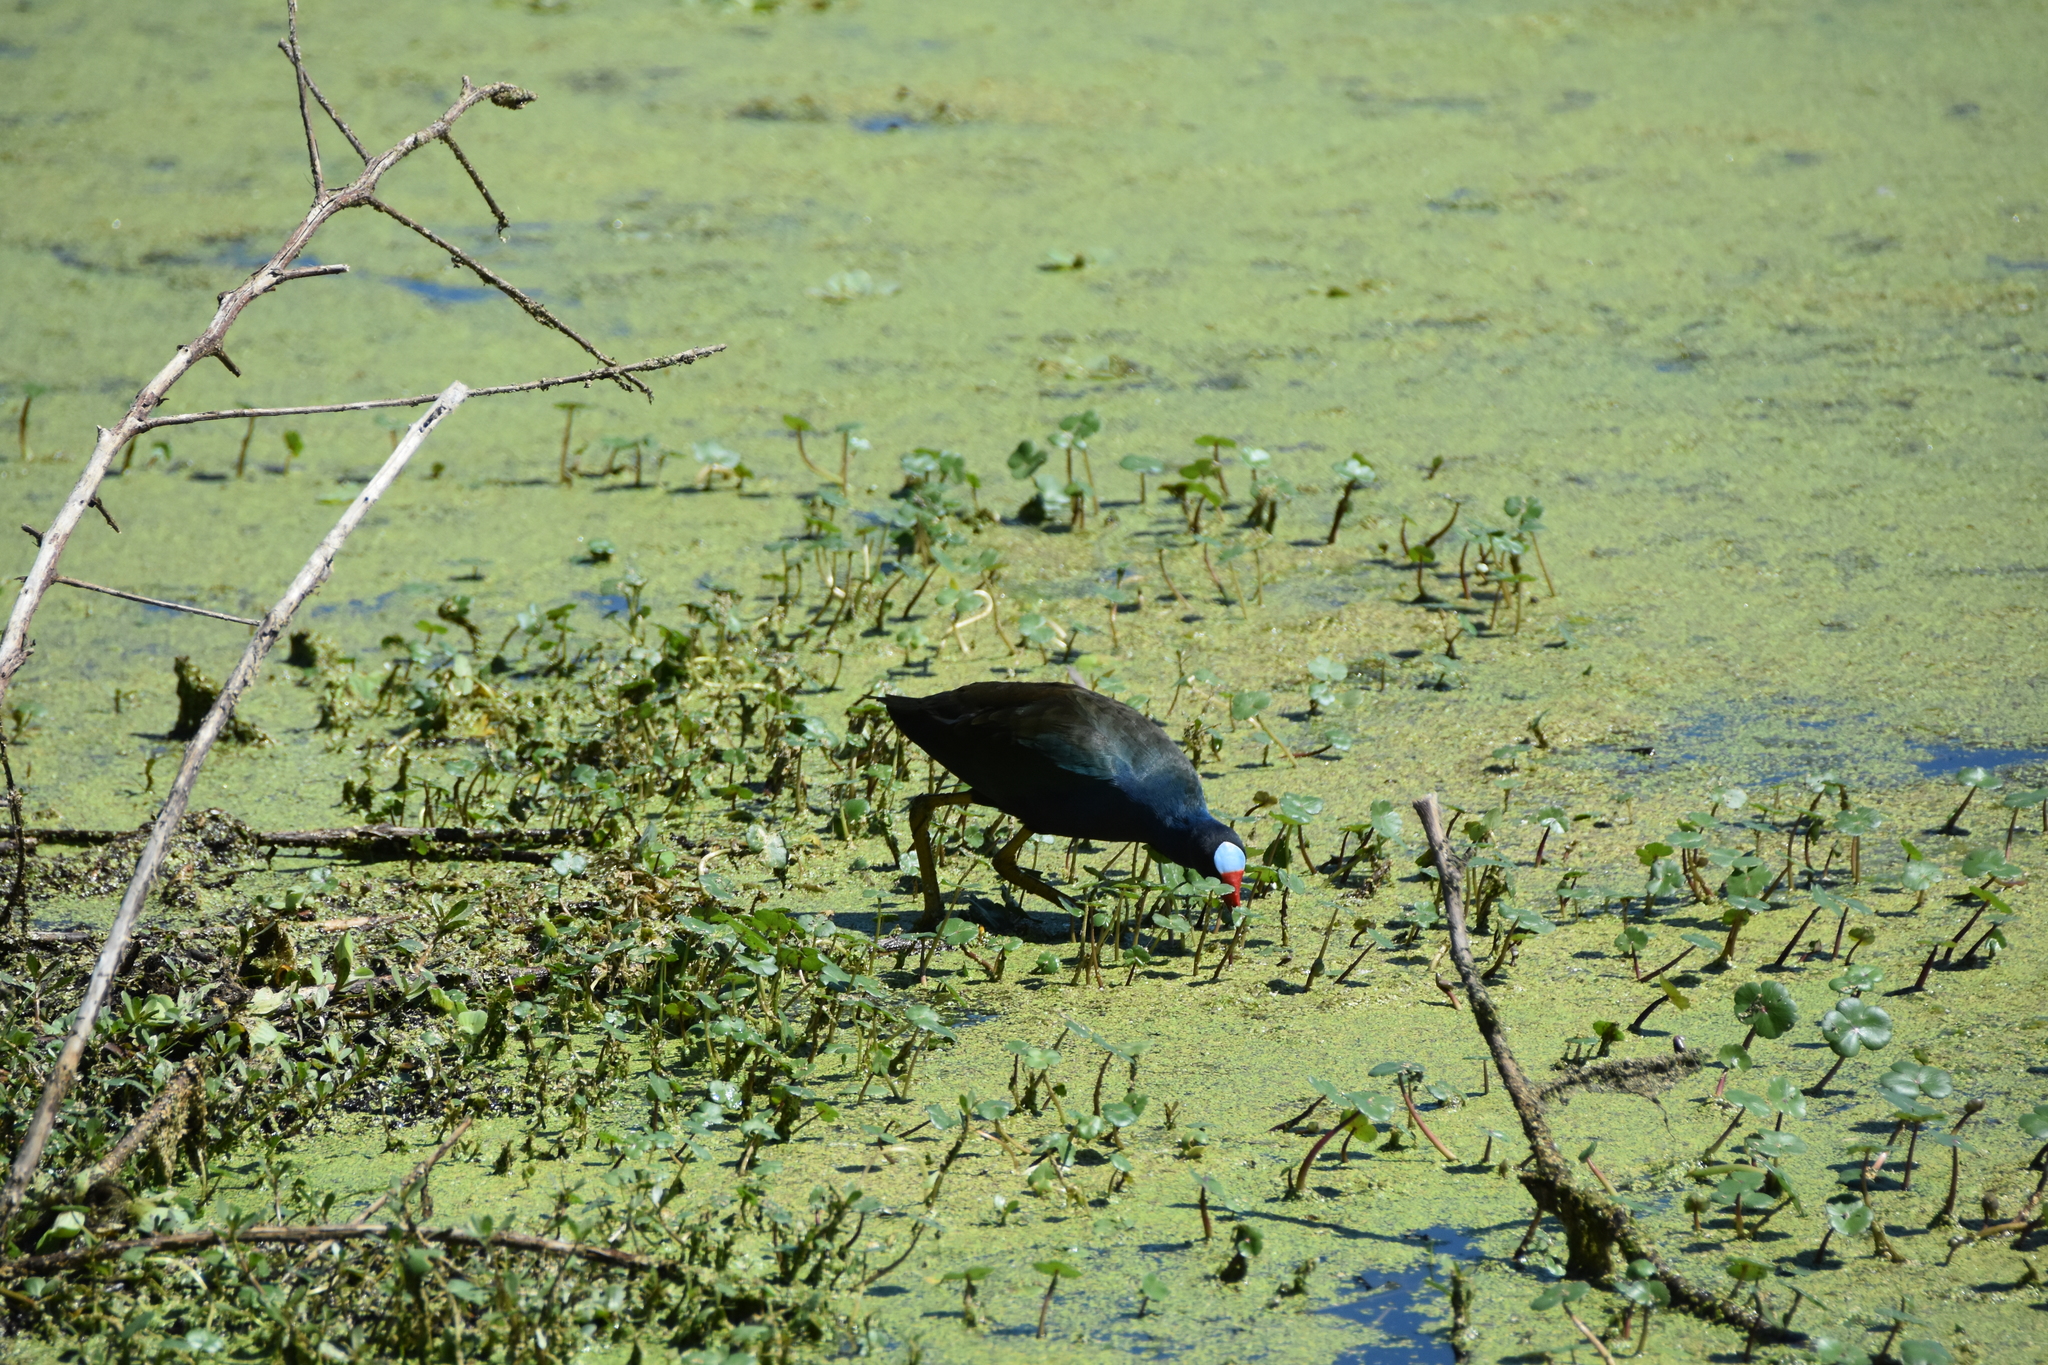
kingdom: Animalia
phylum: Chordata
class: Aves
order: Gruiformes
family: Rallidae
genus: Porphyrio
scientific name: Porphyrio martinica
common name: Purple gallinule
